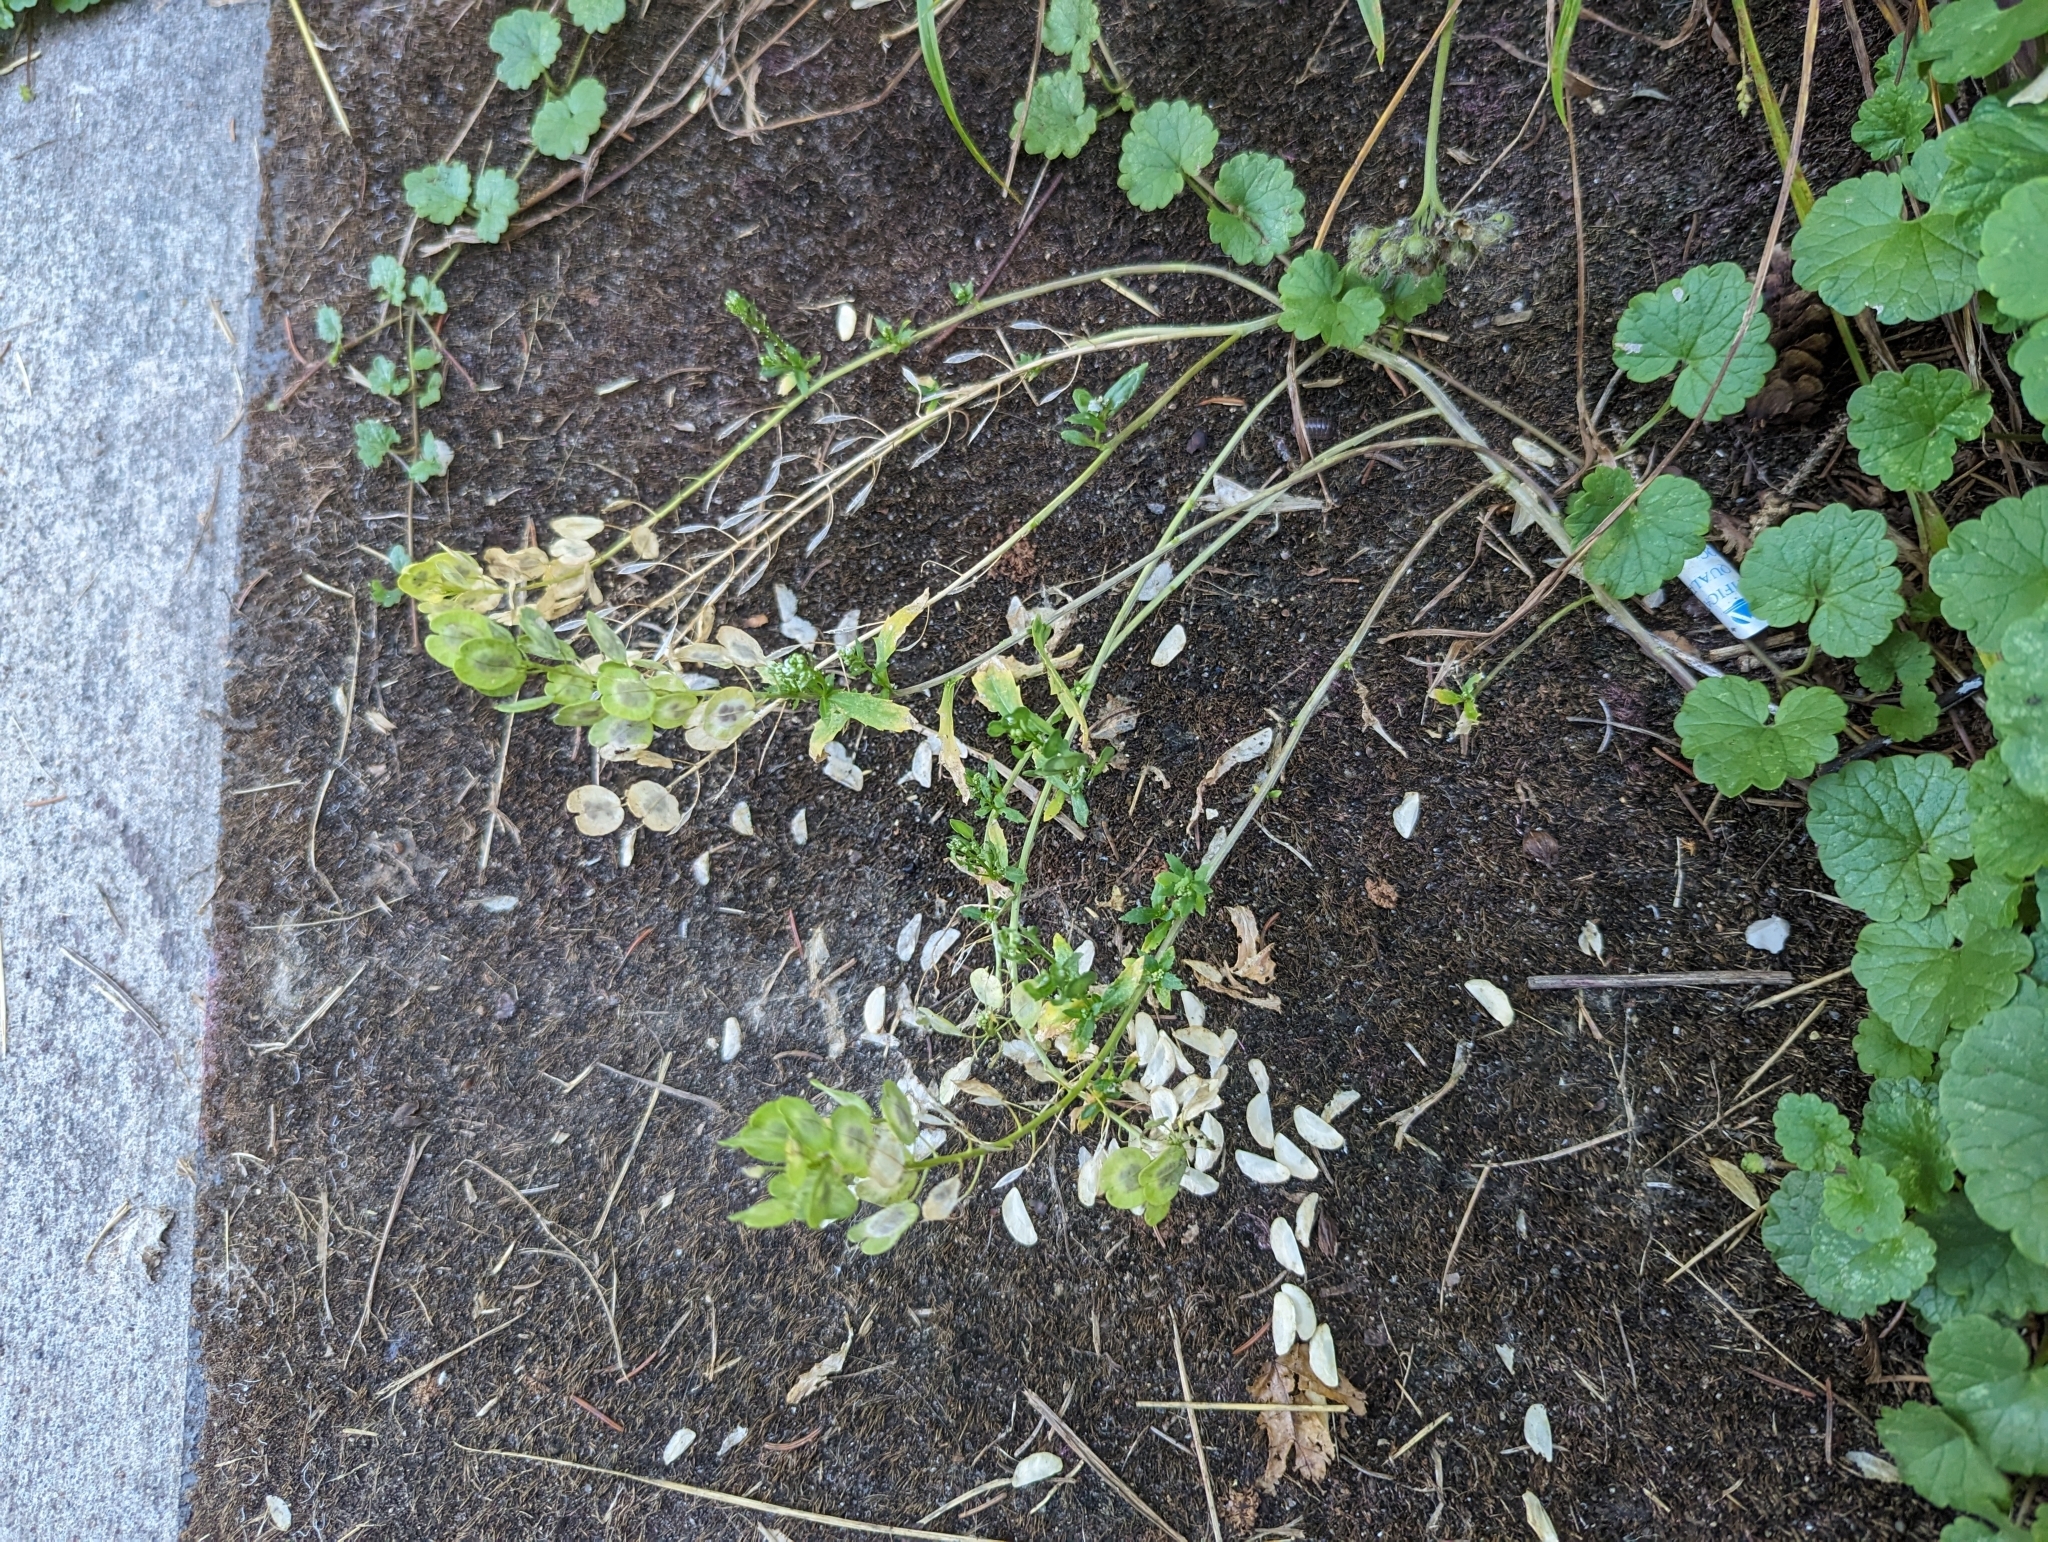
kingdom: Plantae
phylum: Tracheophyta
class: Magnoliopsida
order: Brassicales
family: Brassicaceae
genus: Thlaspi
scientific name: Thlaspi arvense
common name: Field pennycress
